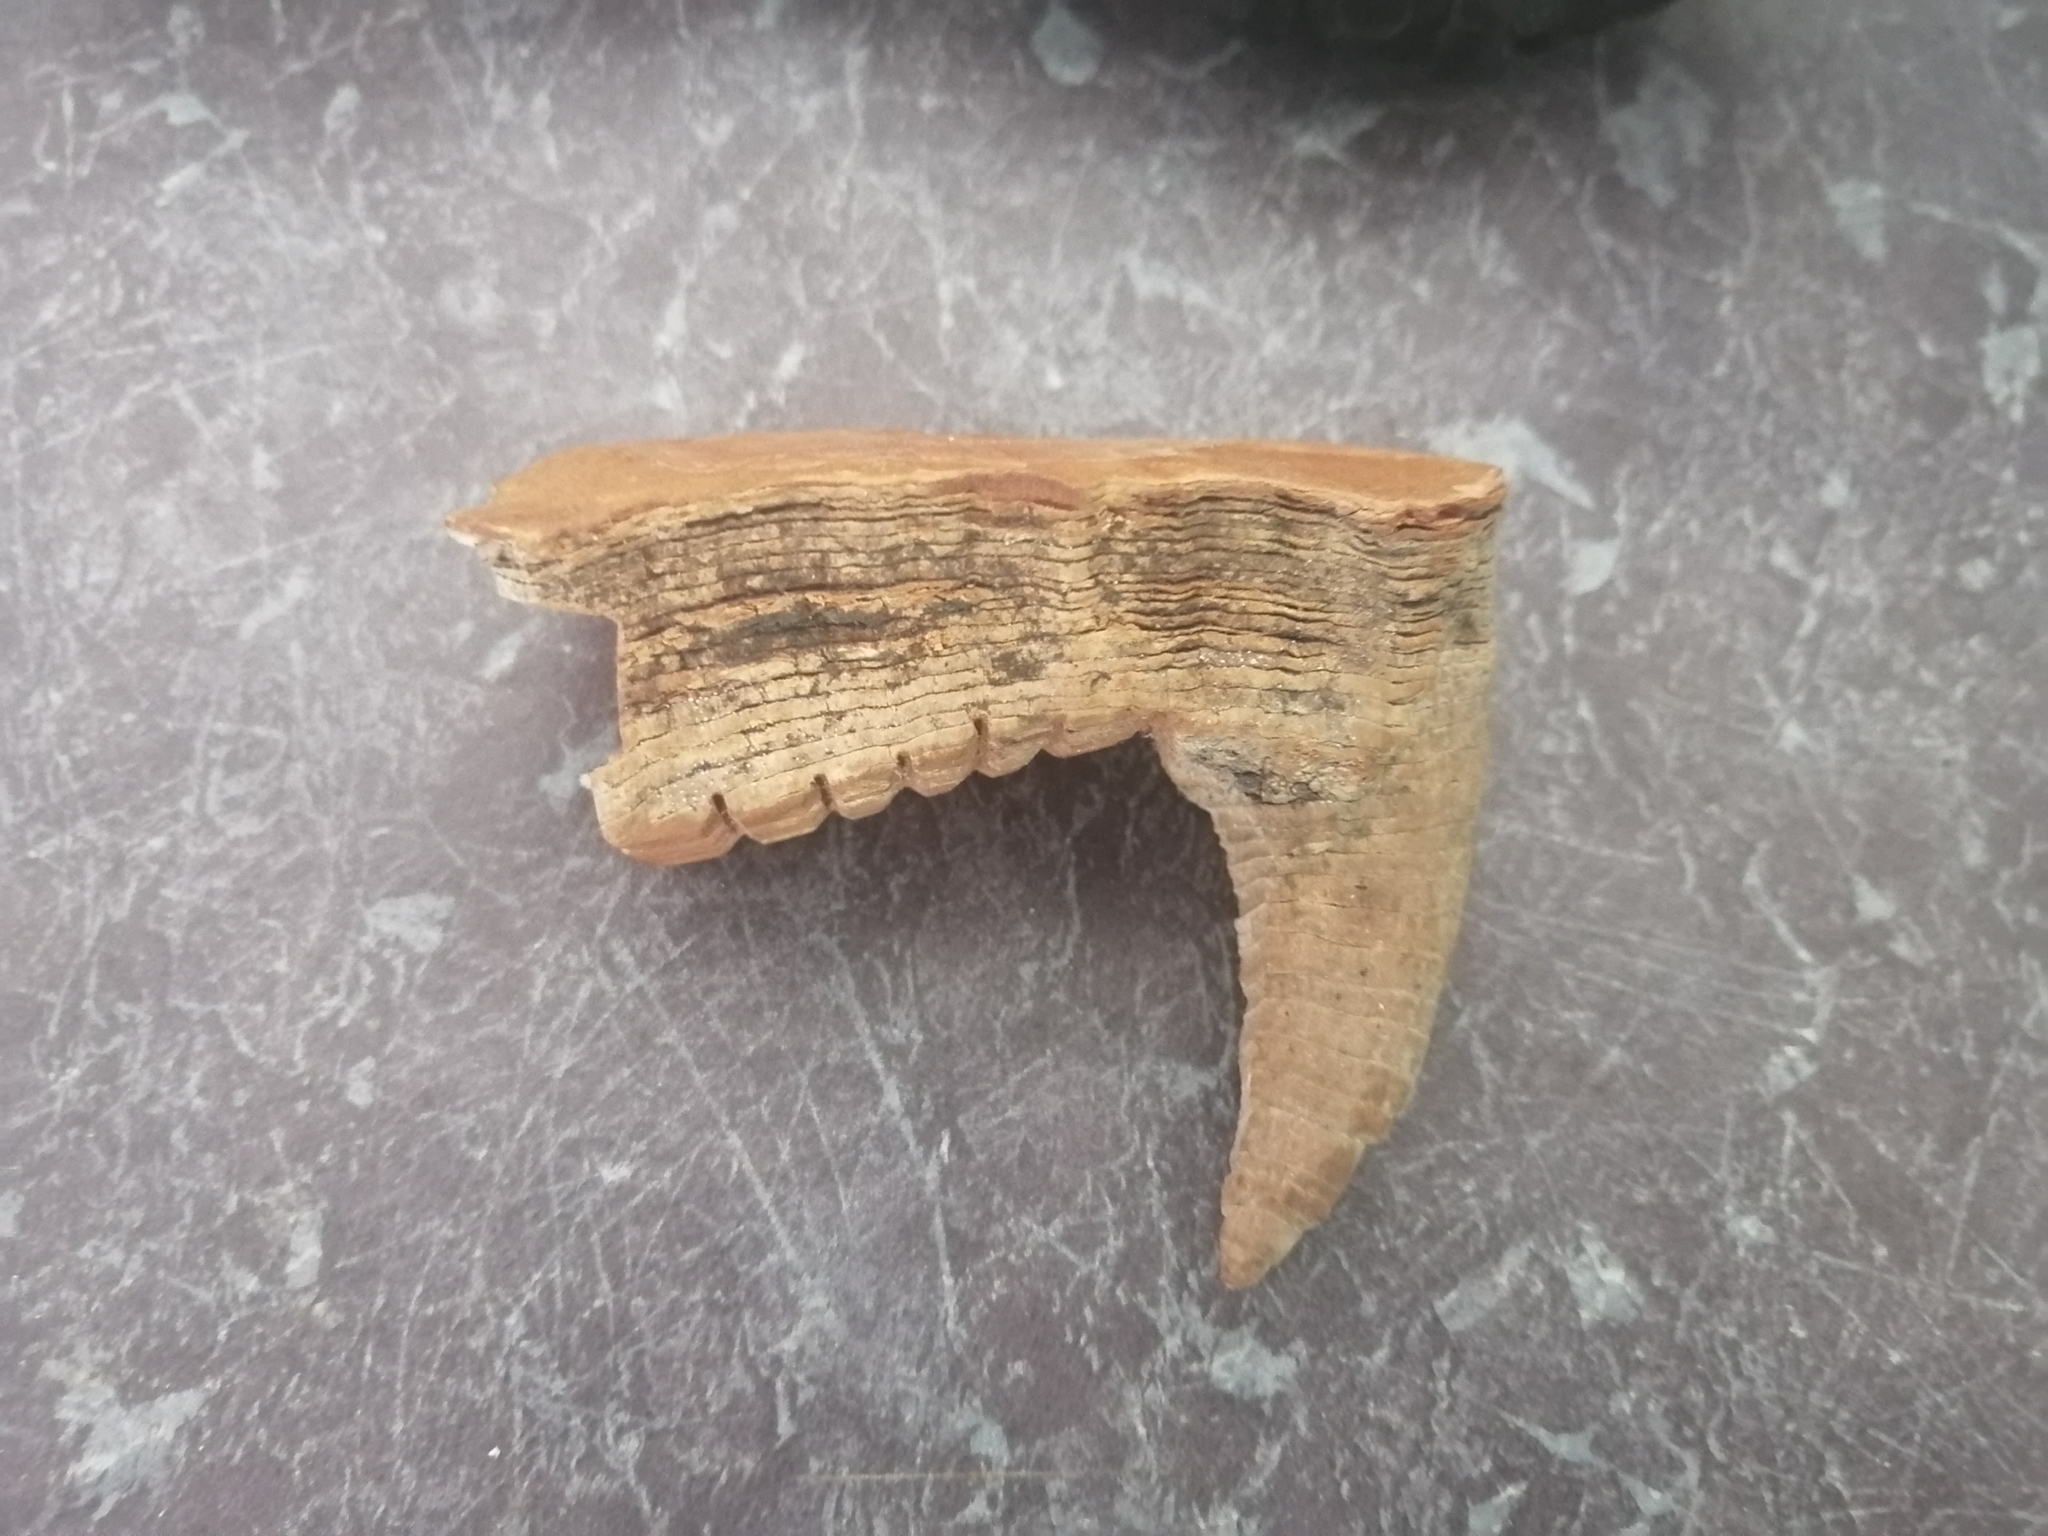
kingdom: Plantae
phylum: Tracheophyta
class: Magnoliopsida
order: Malvales
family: Malvaceae
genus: Ceiba
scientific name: Ceiba aesculifolia
